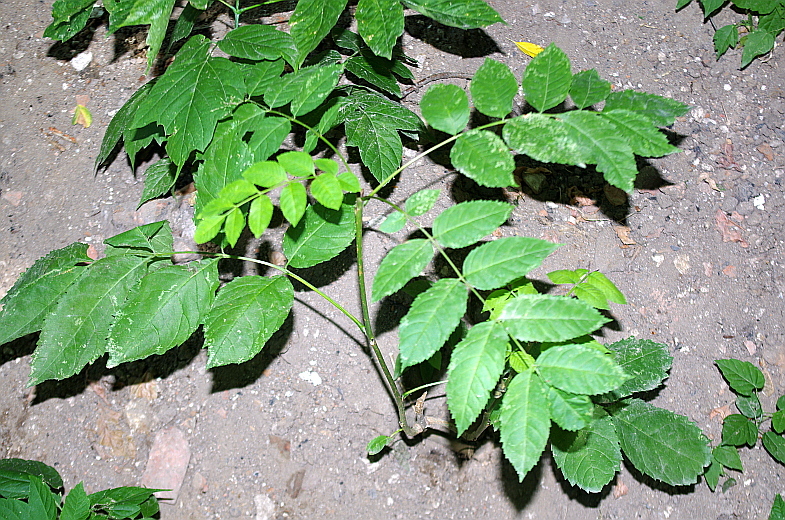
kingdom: Plantae
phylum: Tracheophyta
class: Magnoliopsida
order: Lamiales
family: Oleaceae
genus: Fraxinus
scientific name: Fraxinus pennsylvanica
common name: Green ash
